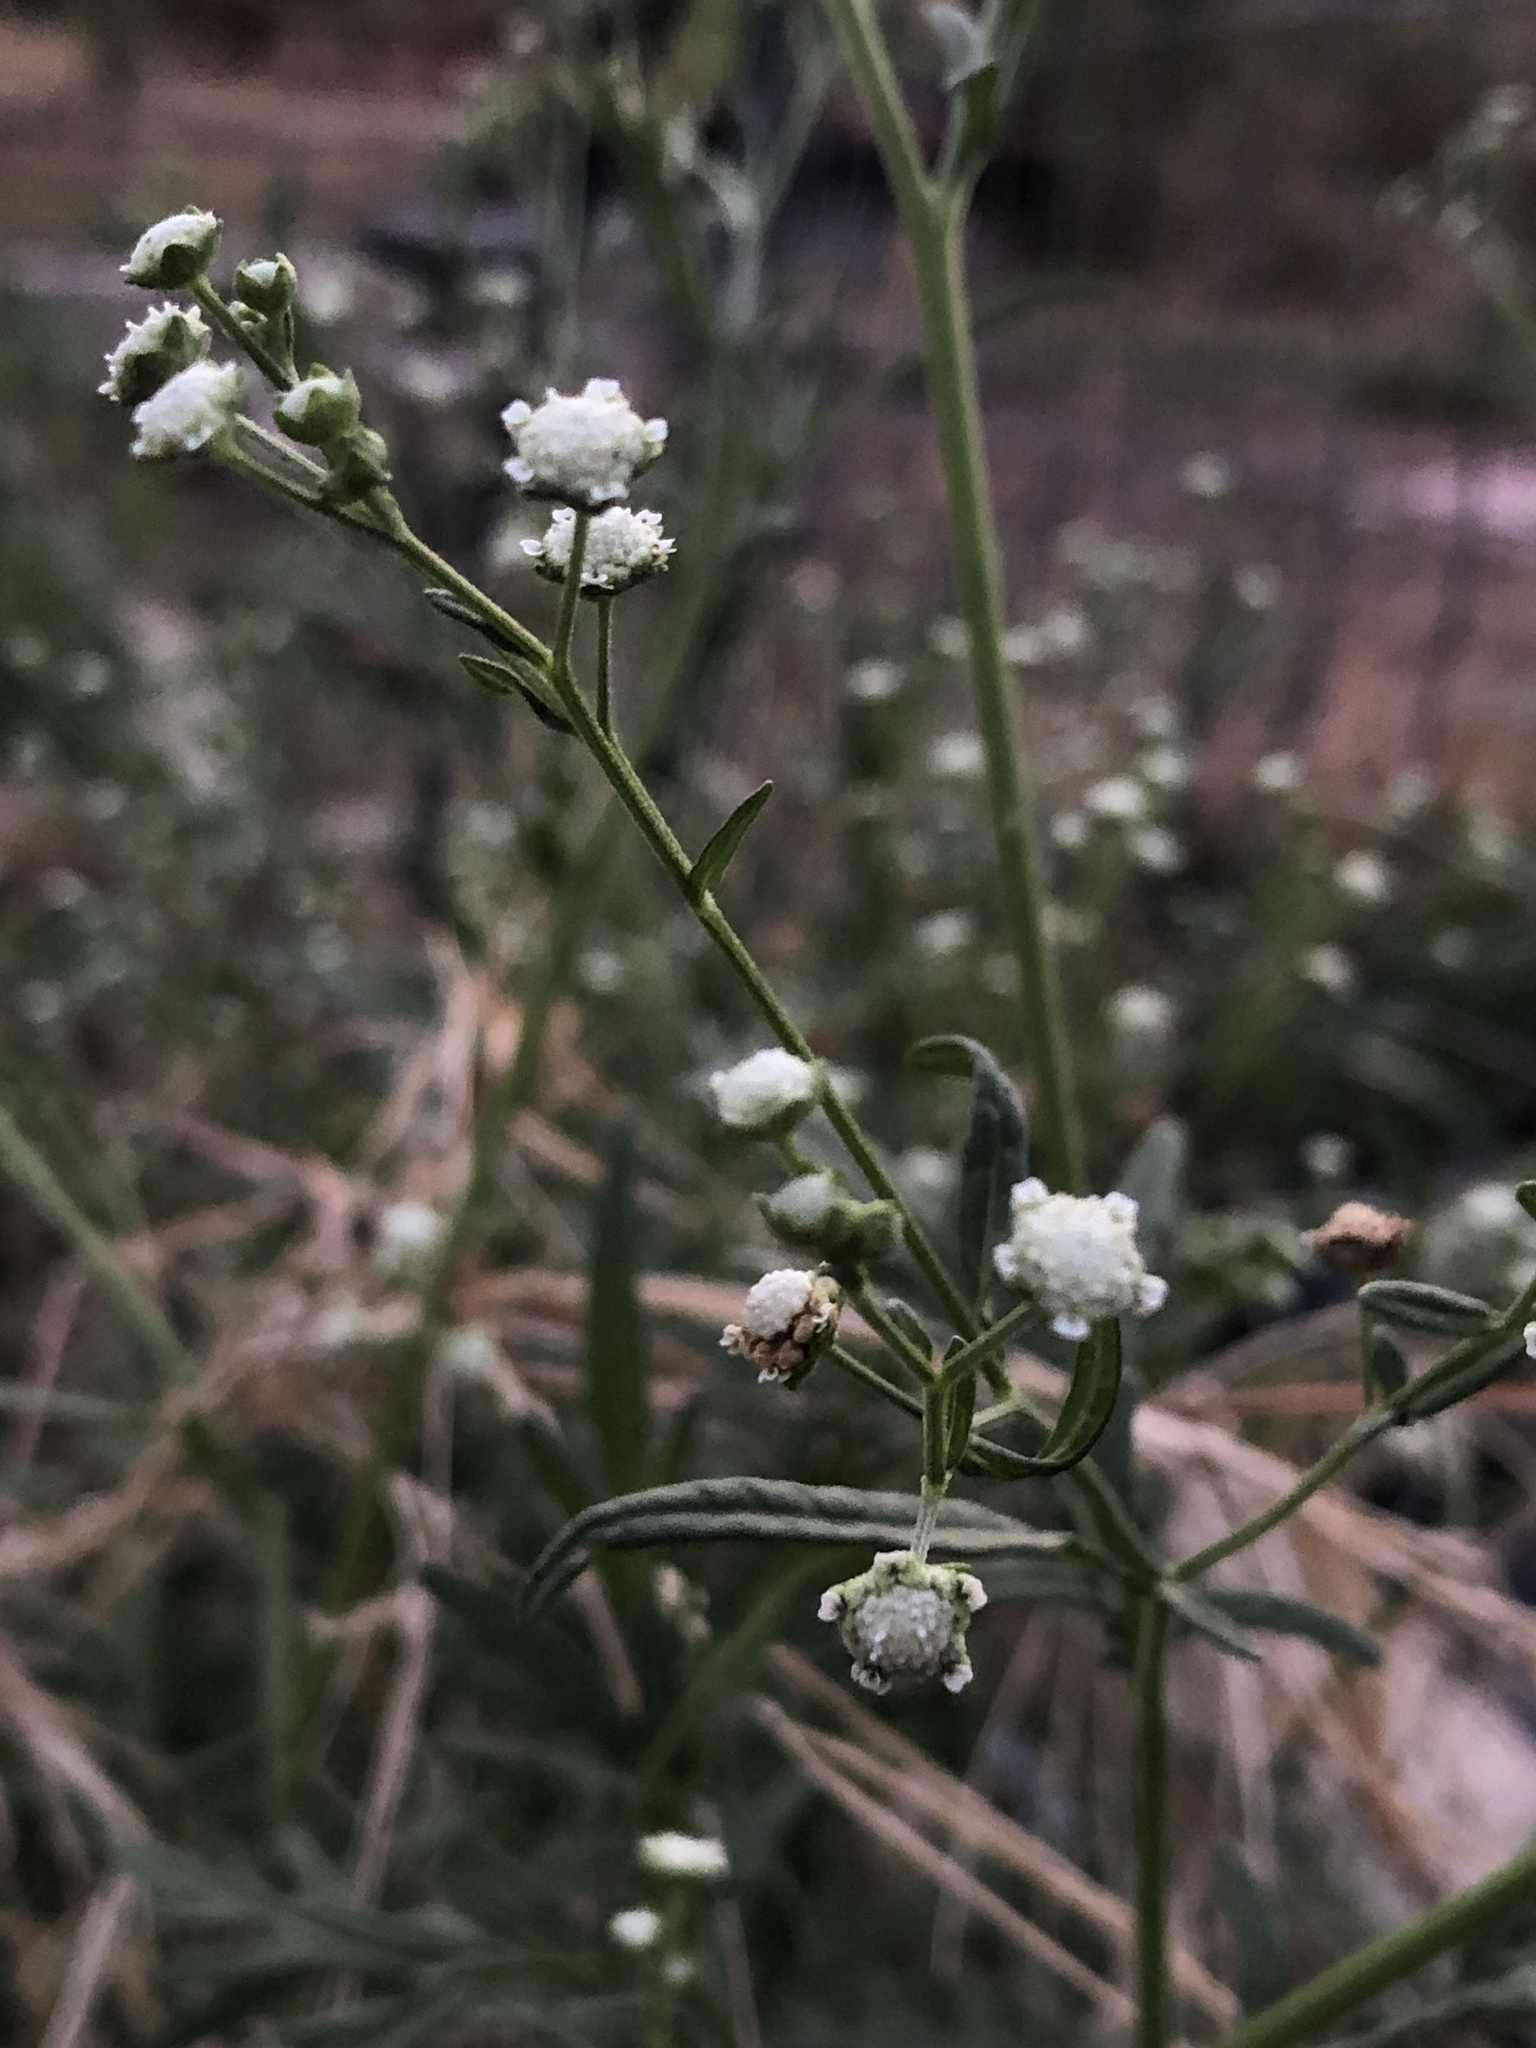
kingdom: Plantae
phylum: Tracheophyta
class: Magnoliopsida
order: Asterales
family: Asteraceae
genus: Parthenium
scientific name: Parthenium hysterophorus
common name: Santa maria feverfew
